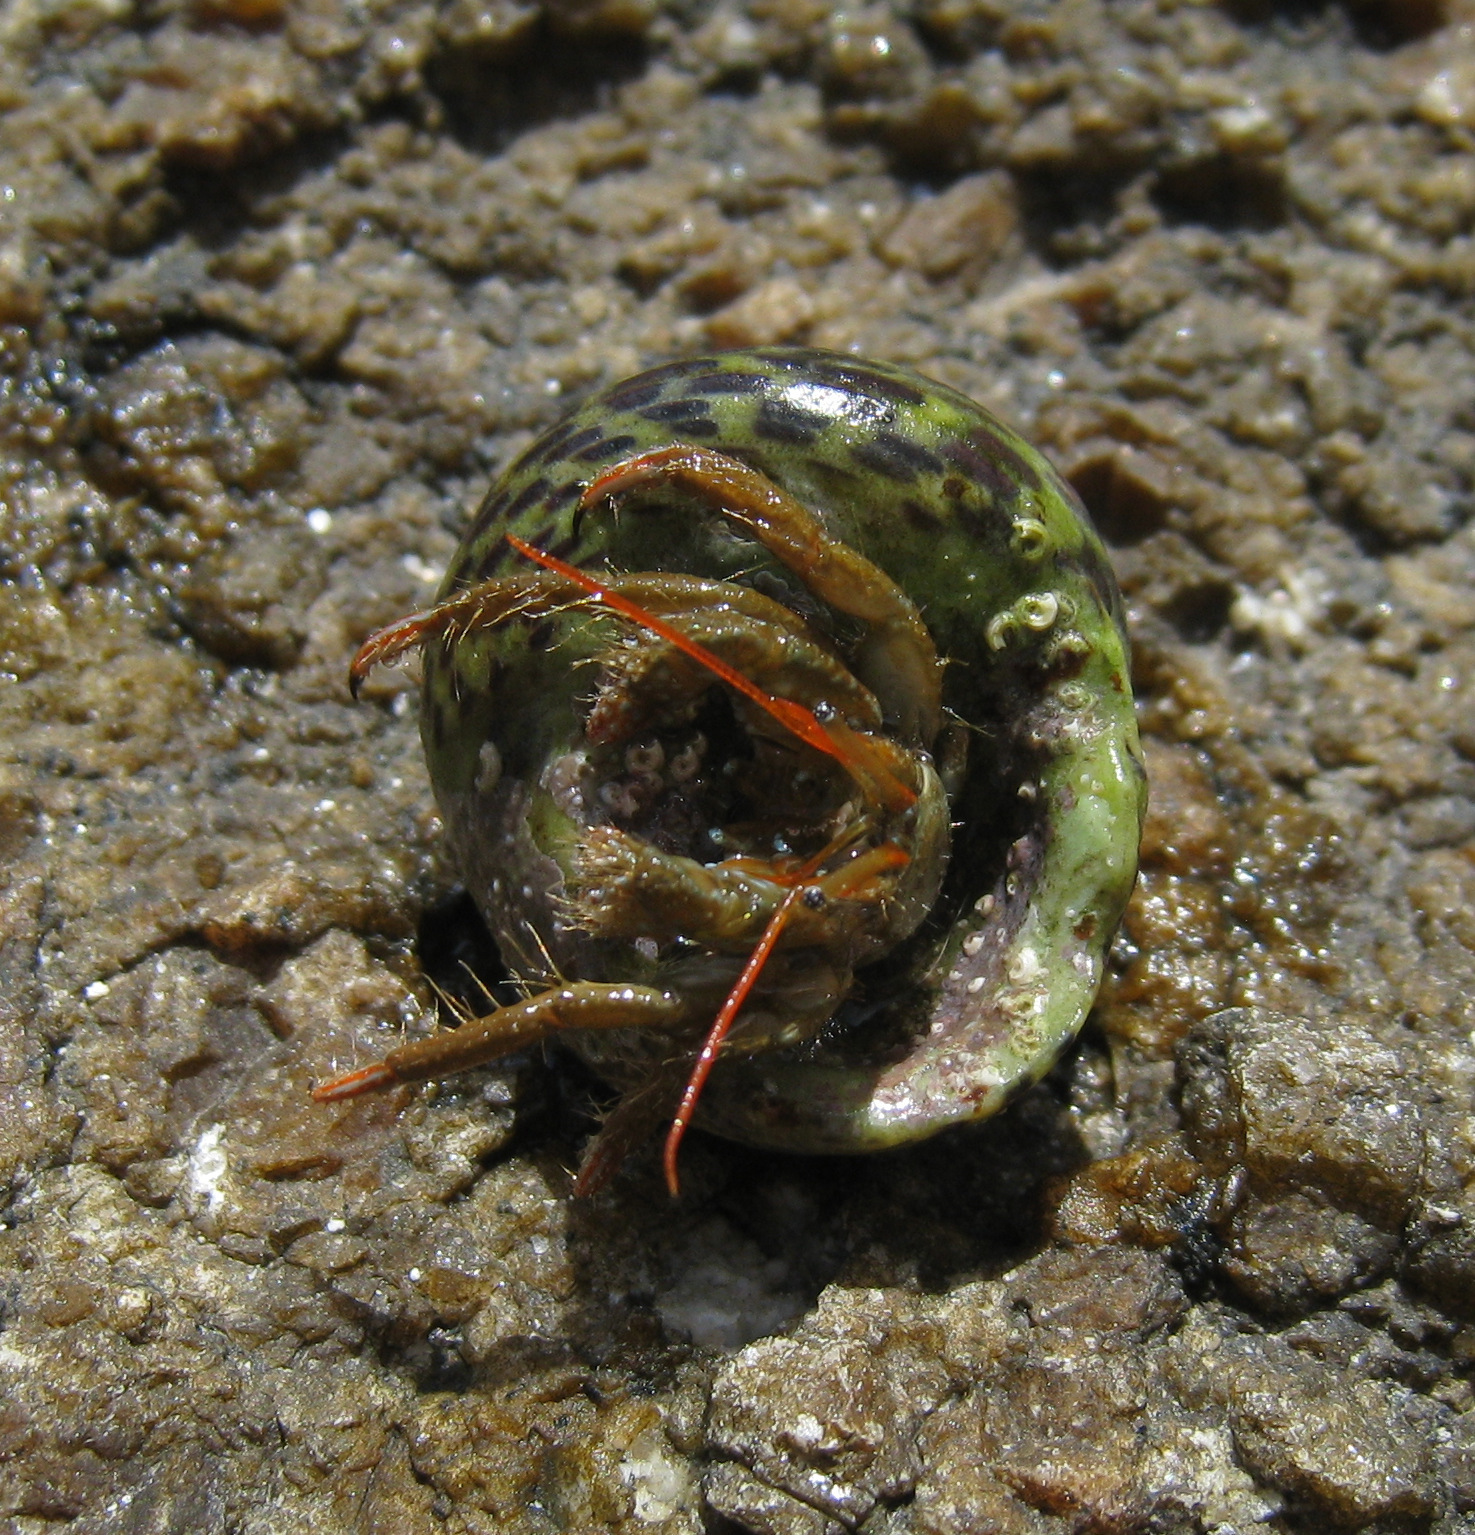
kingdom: Animalia
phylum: Arthropoda
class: Malacostraca
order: Decapoda
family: Diogenidae
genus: Clibanarius
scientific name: Clibanarius erythropus
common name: Hermit crab
